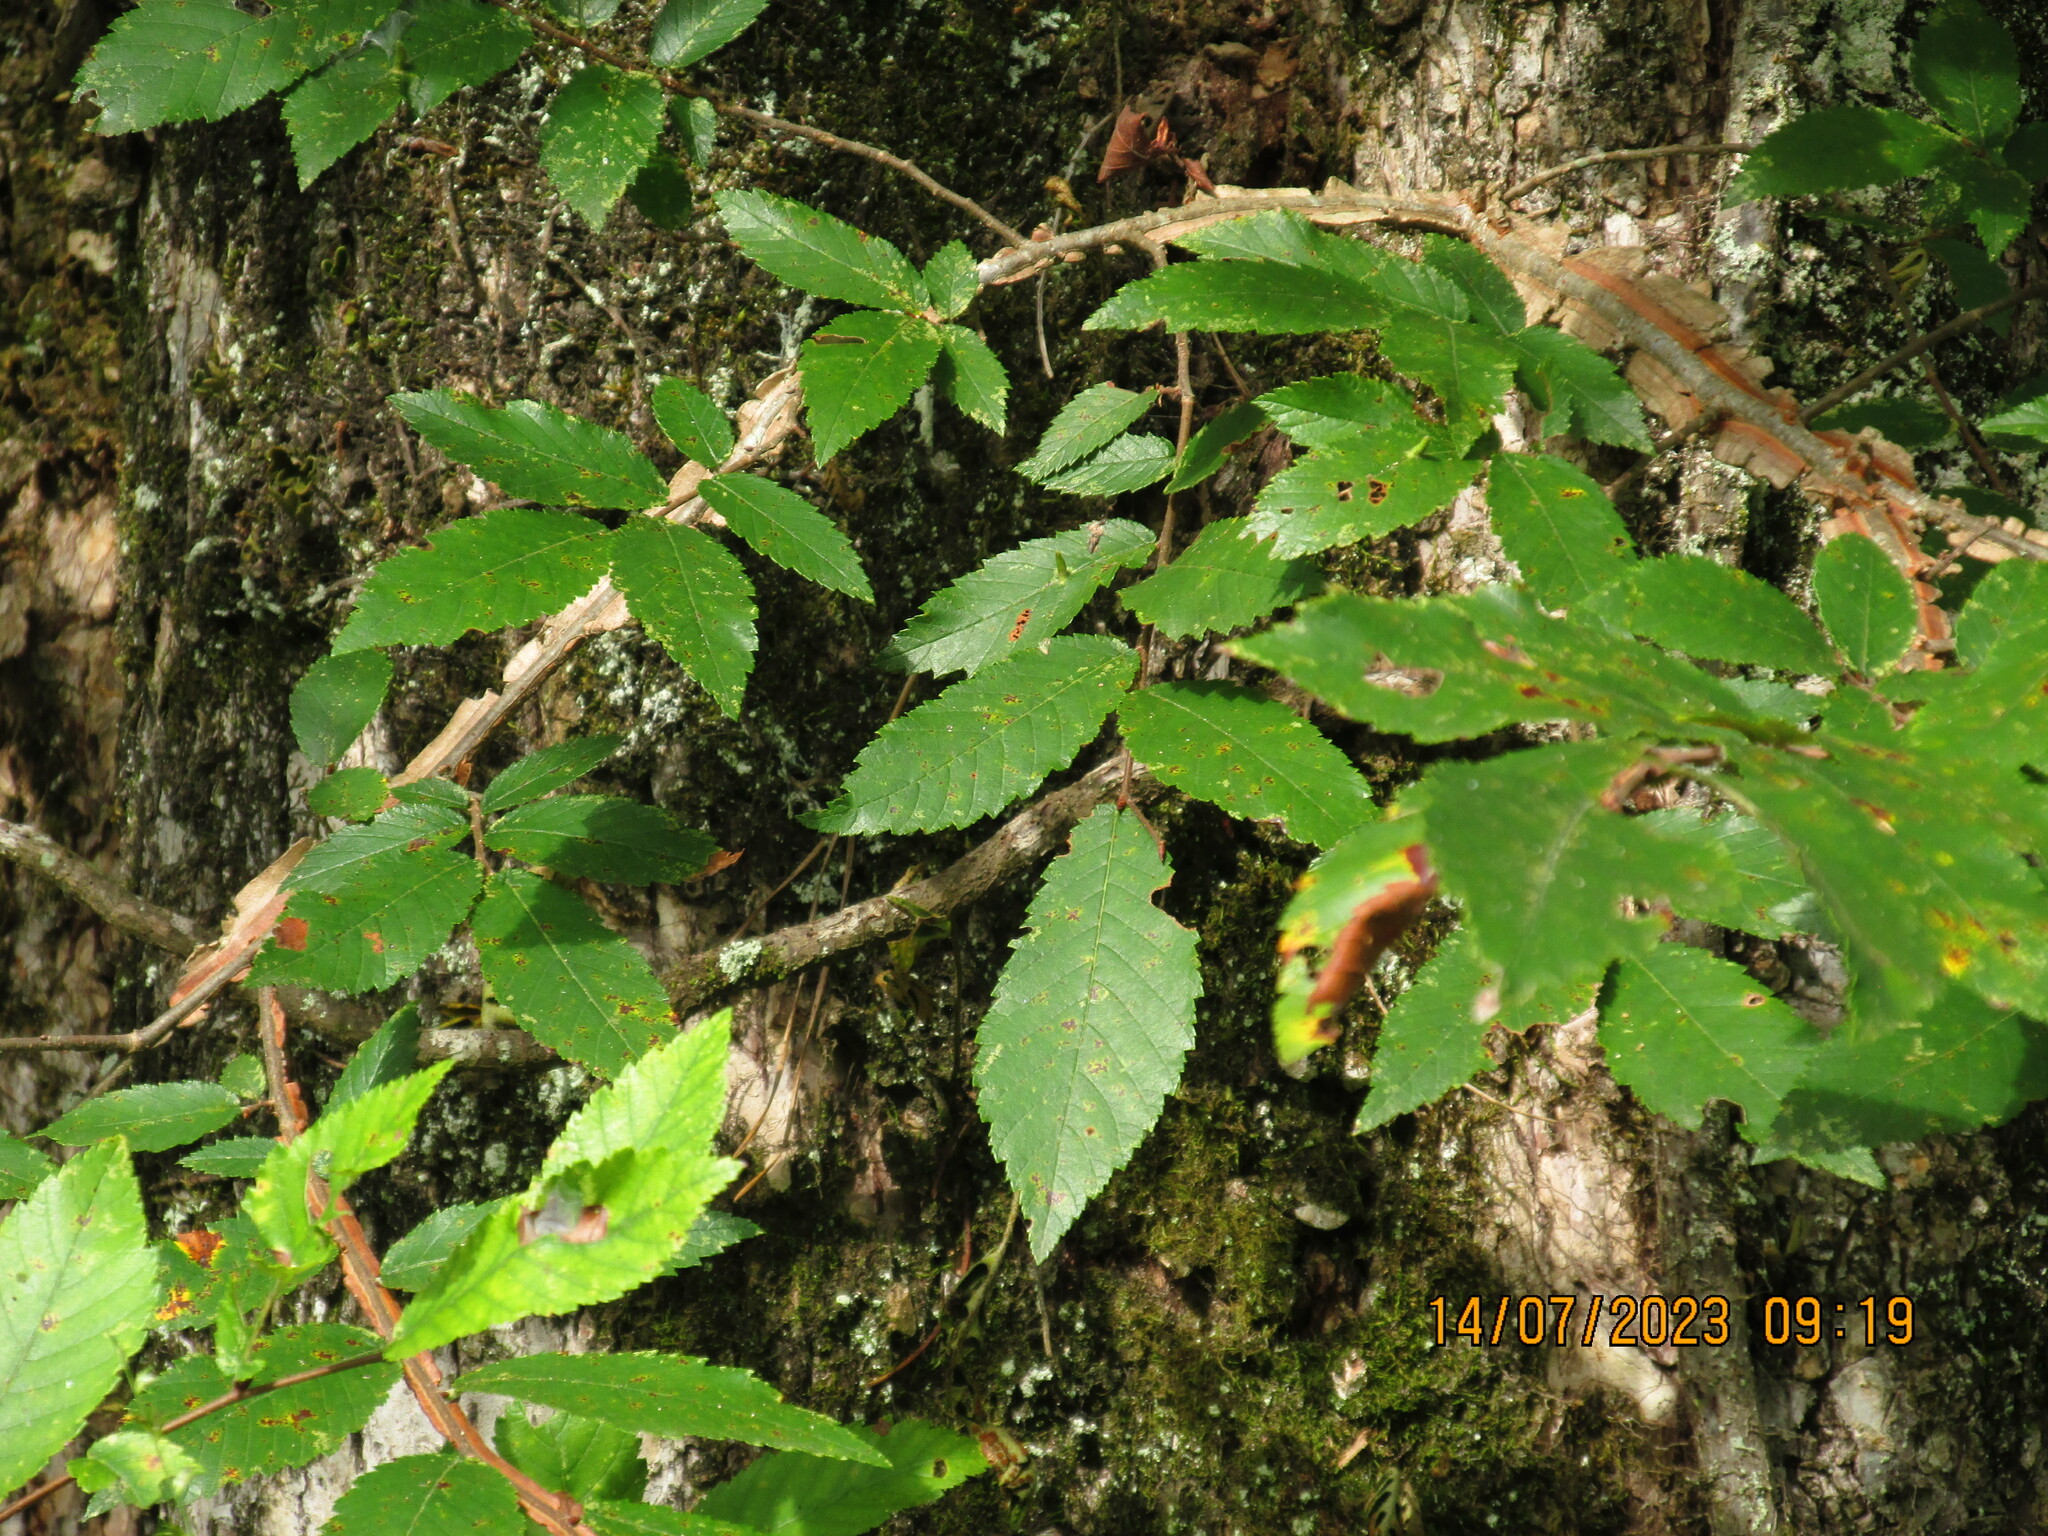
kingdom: Plantae
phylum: Tracheophyta
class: Magnoliopsida
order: Rosales
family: Ulmaceae
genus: Ulmus
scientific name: Ulmus alata
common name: Winged elm
